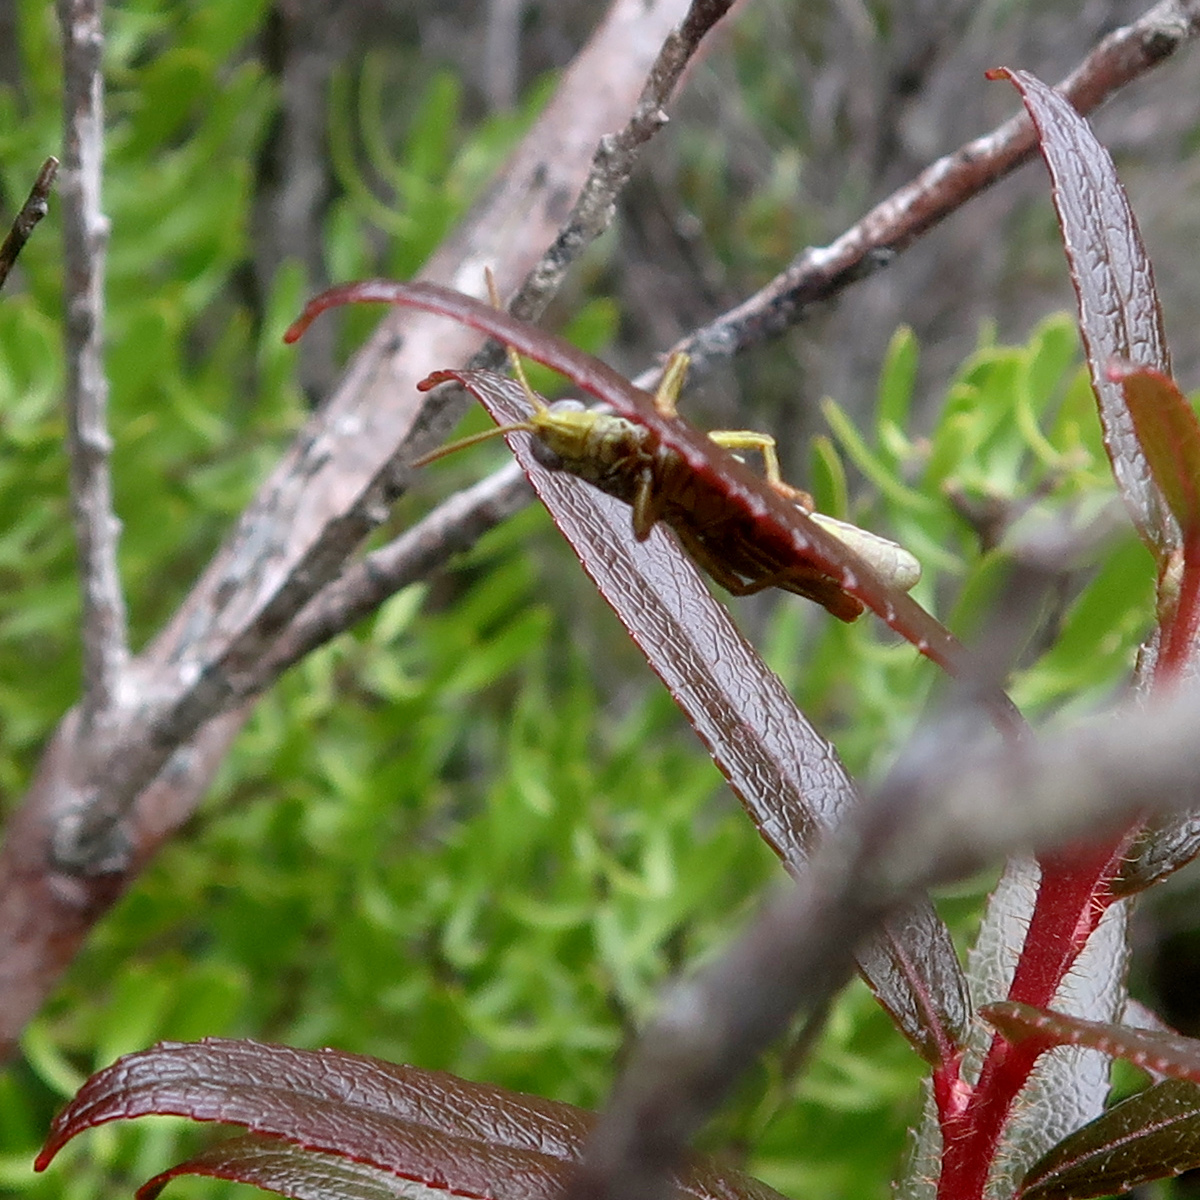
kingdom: Animalia
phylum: Arthropoda
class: Insecta
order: Orthoptera
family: Acrididae
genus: Truganinia
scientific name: Truganinia bauerae
